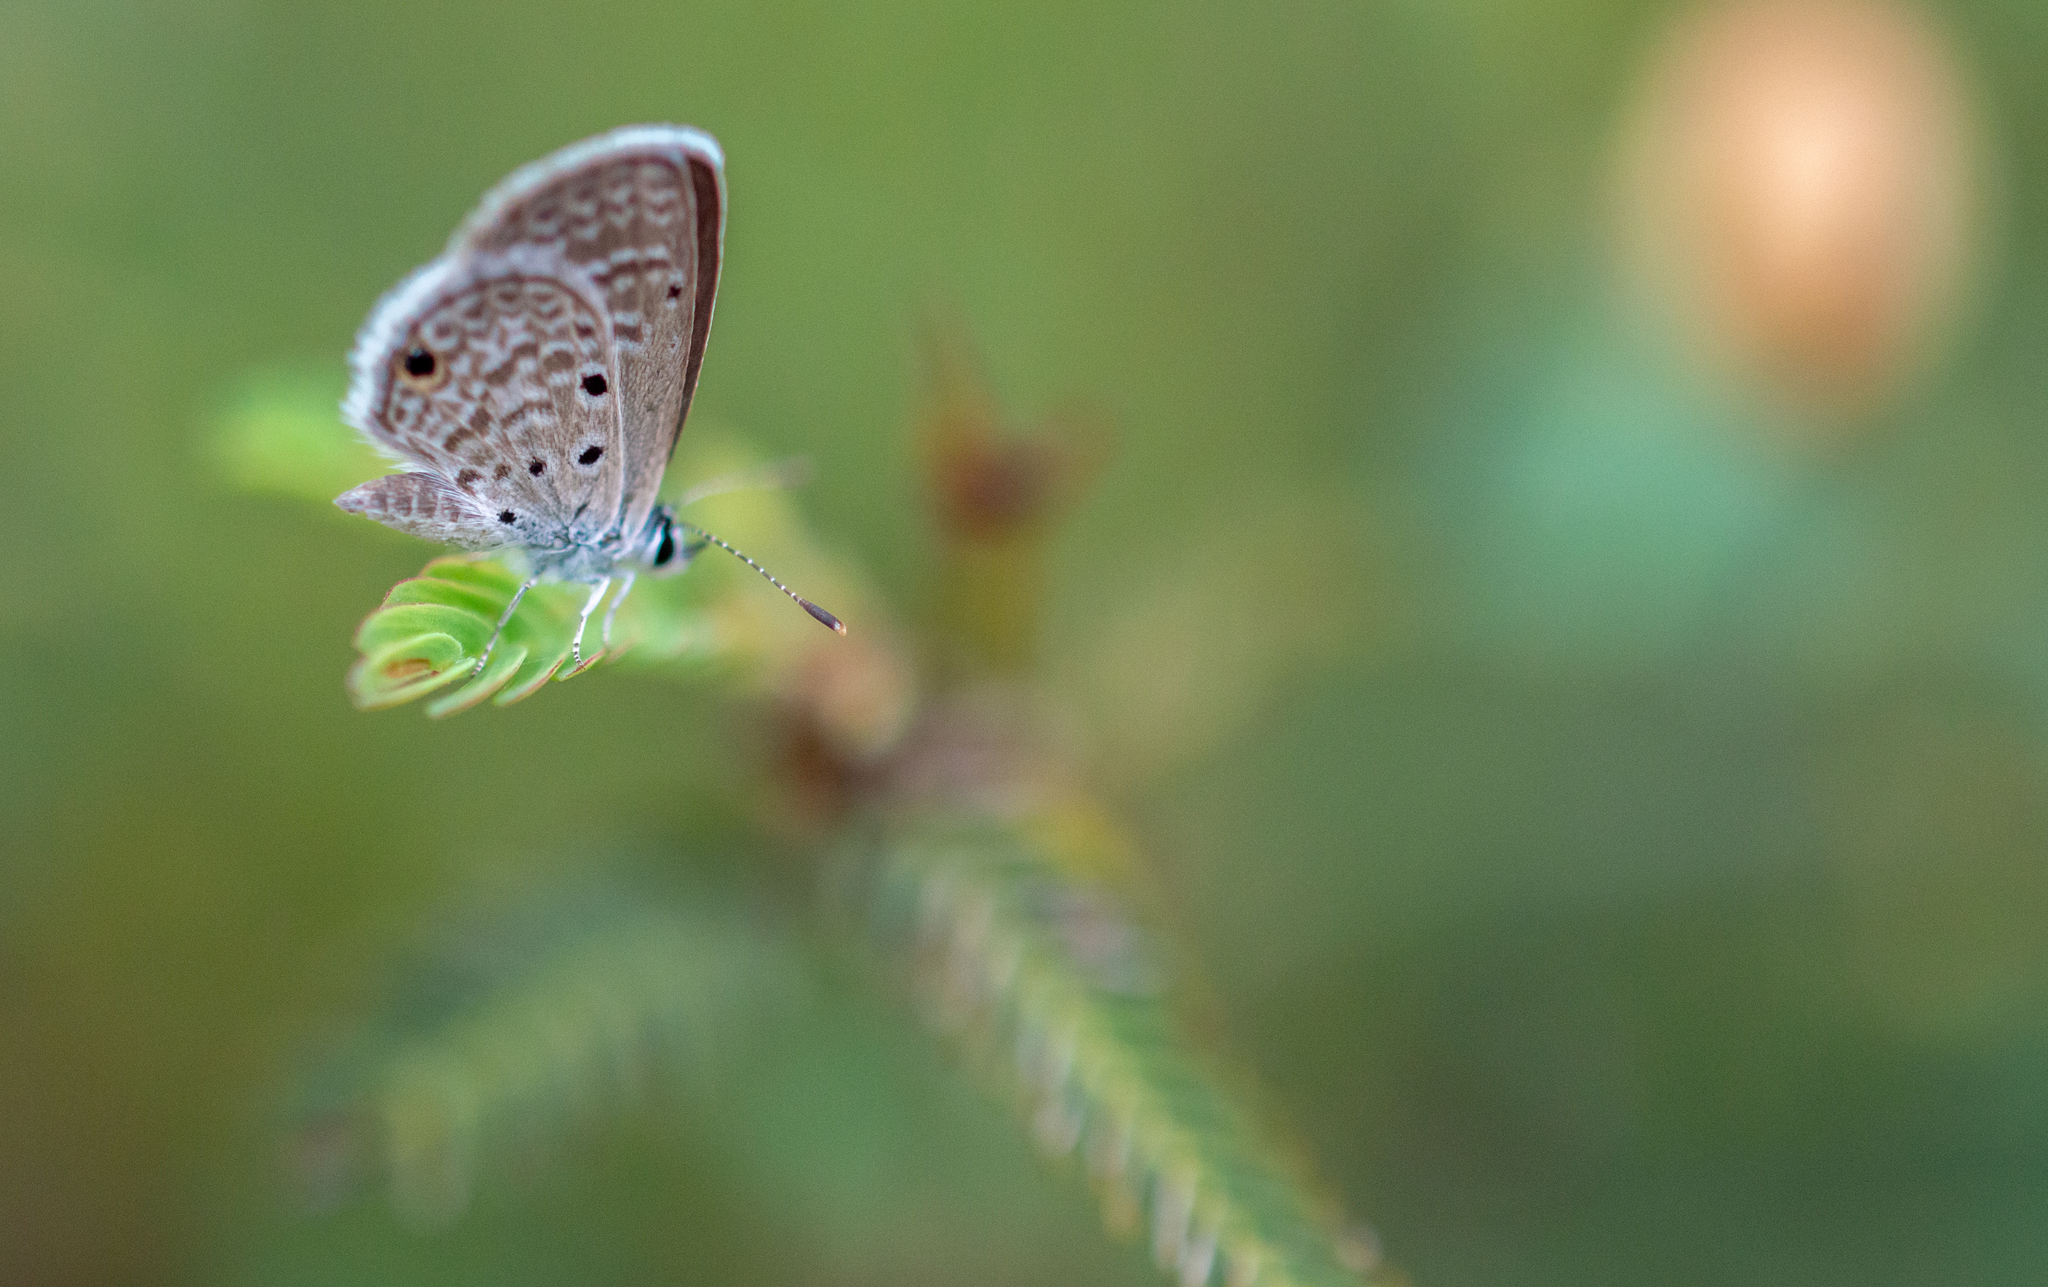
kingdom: Animalia
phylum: Arthropoda
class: Insecta
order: Lepidoptera
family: Lycaenidae
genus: Hemiargus
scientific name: Hemiargus hanno
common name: Common blue
